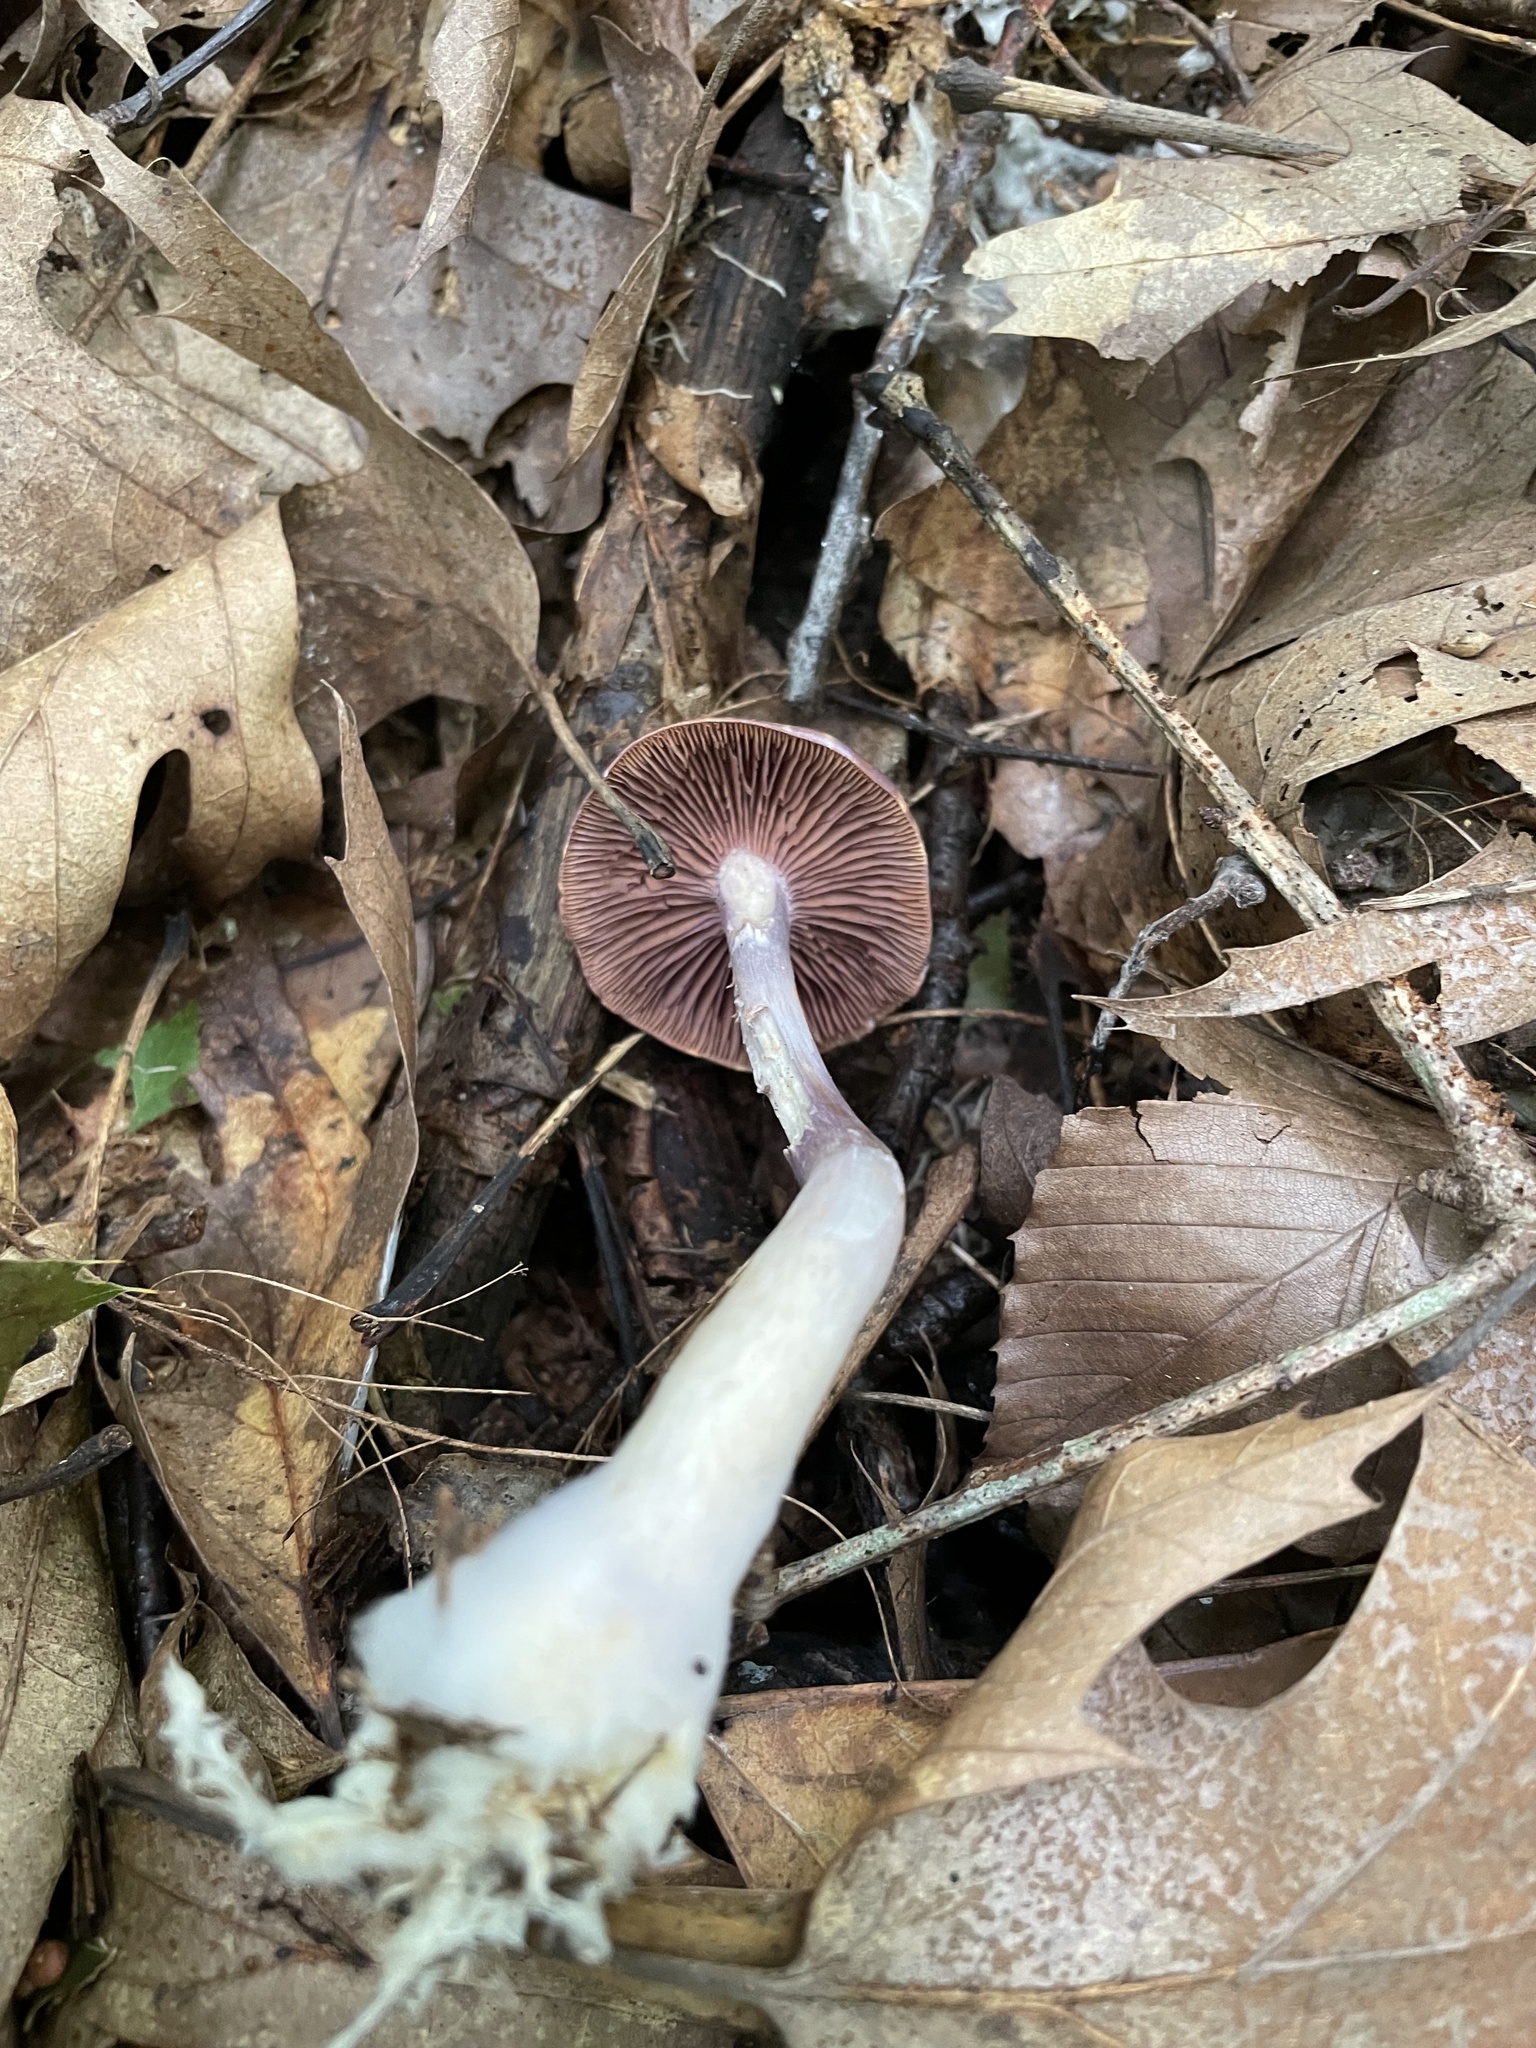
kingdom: Fungi
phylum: Basidiomycota
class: Agaricomycetes
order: Agaricales
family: Cortinariaceae
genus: Cortinarius
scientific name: Cortinarius iodes
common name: Viscid violet cort
